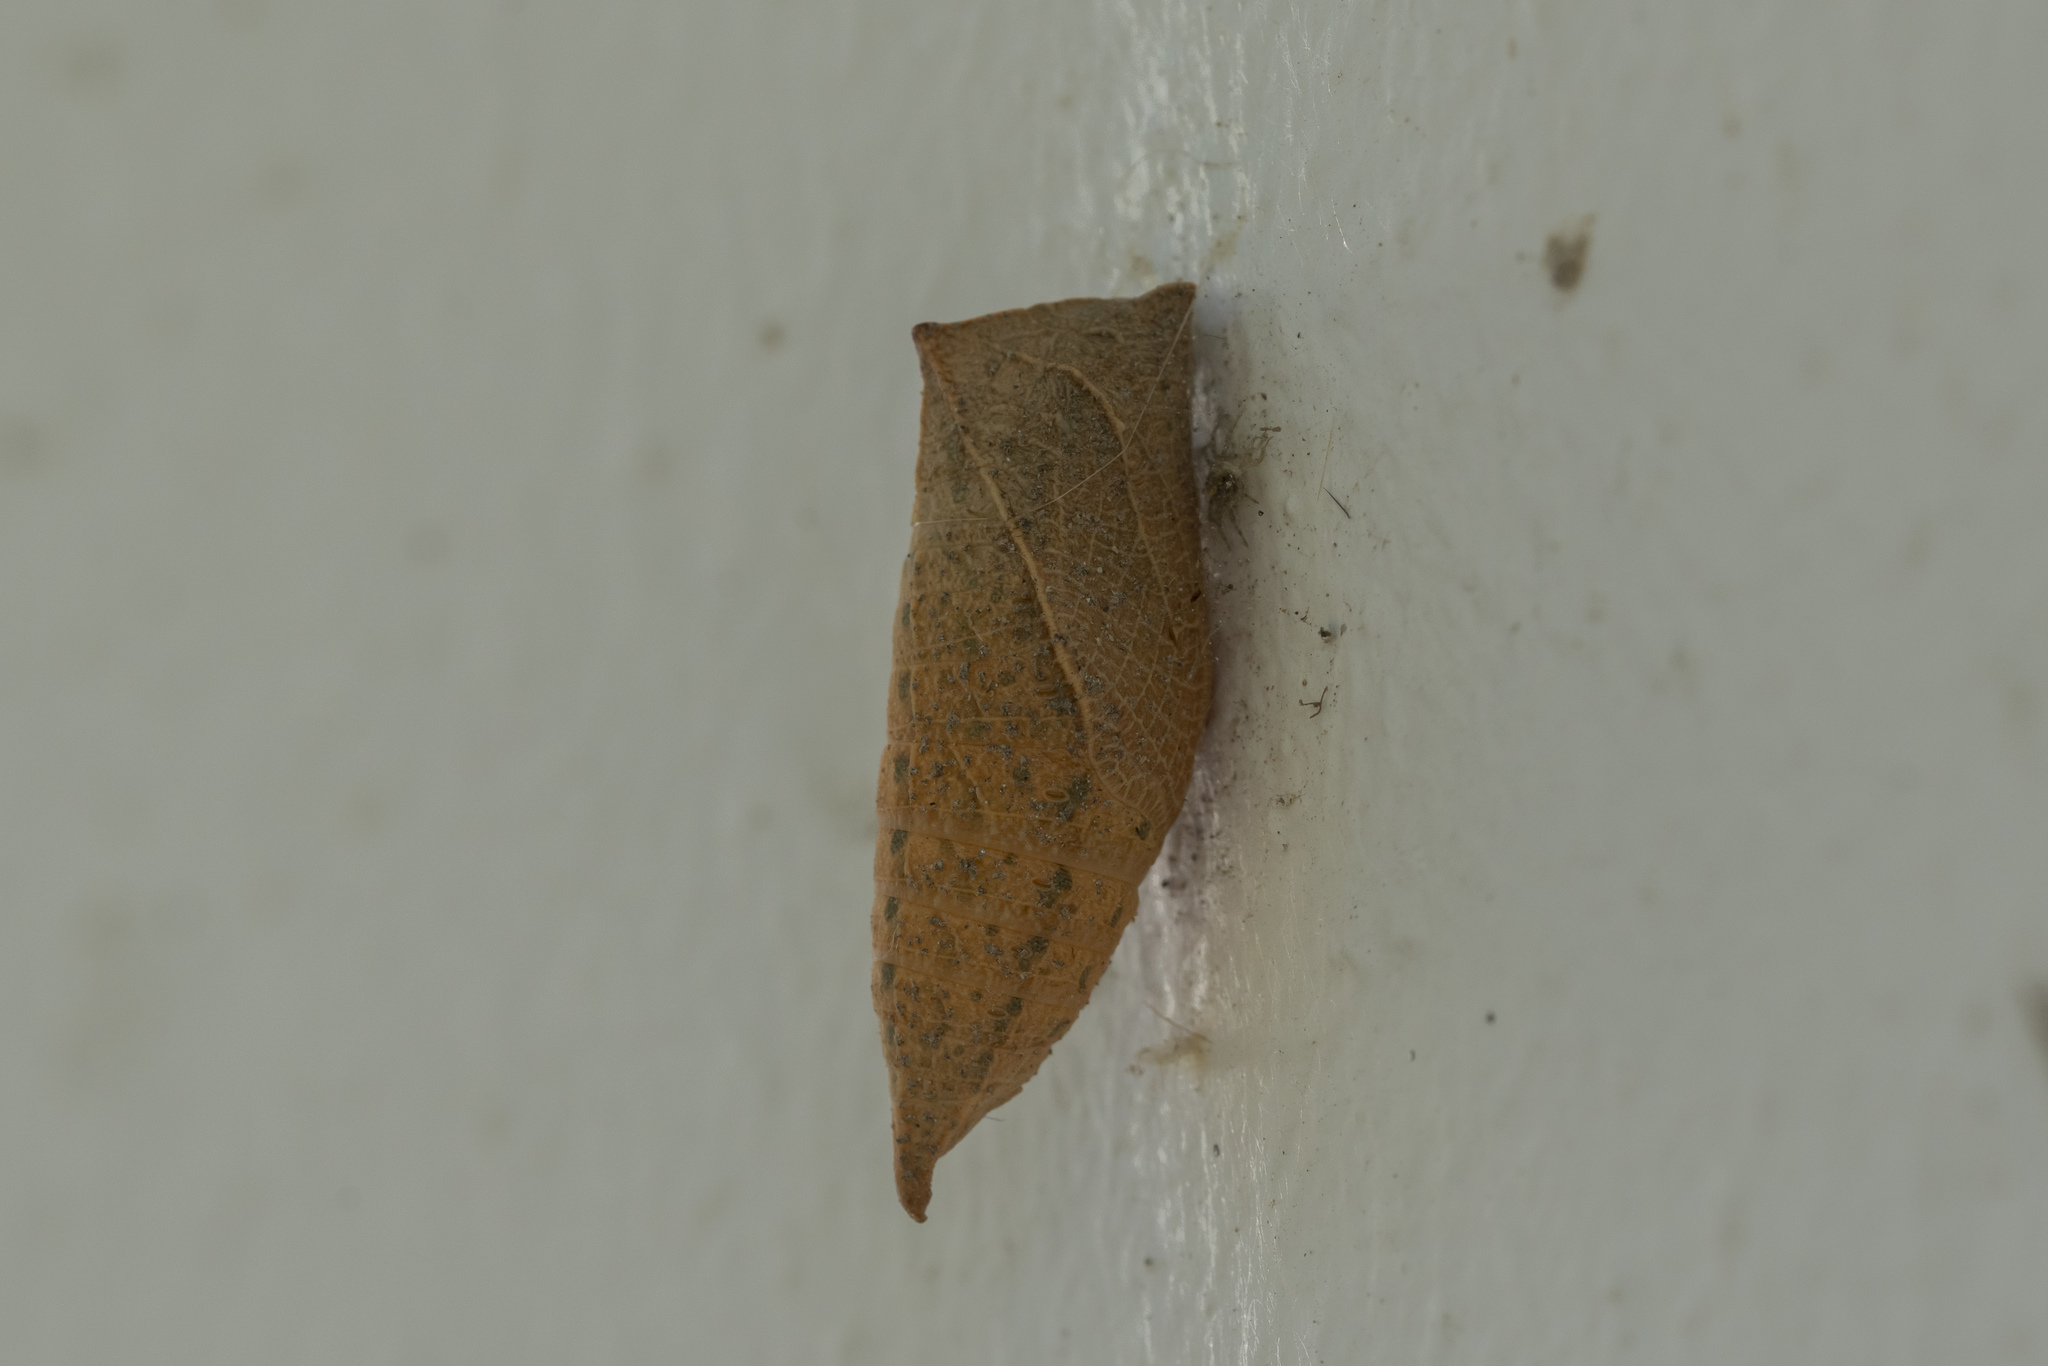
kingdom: Animalia
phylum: Arthropoda
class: Insecta
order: Lepidoptera
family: Papilionidae
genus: Iphiclides
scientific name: Iphiclides podalirius
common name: Scarce swallowtail
